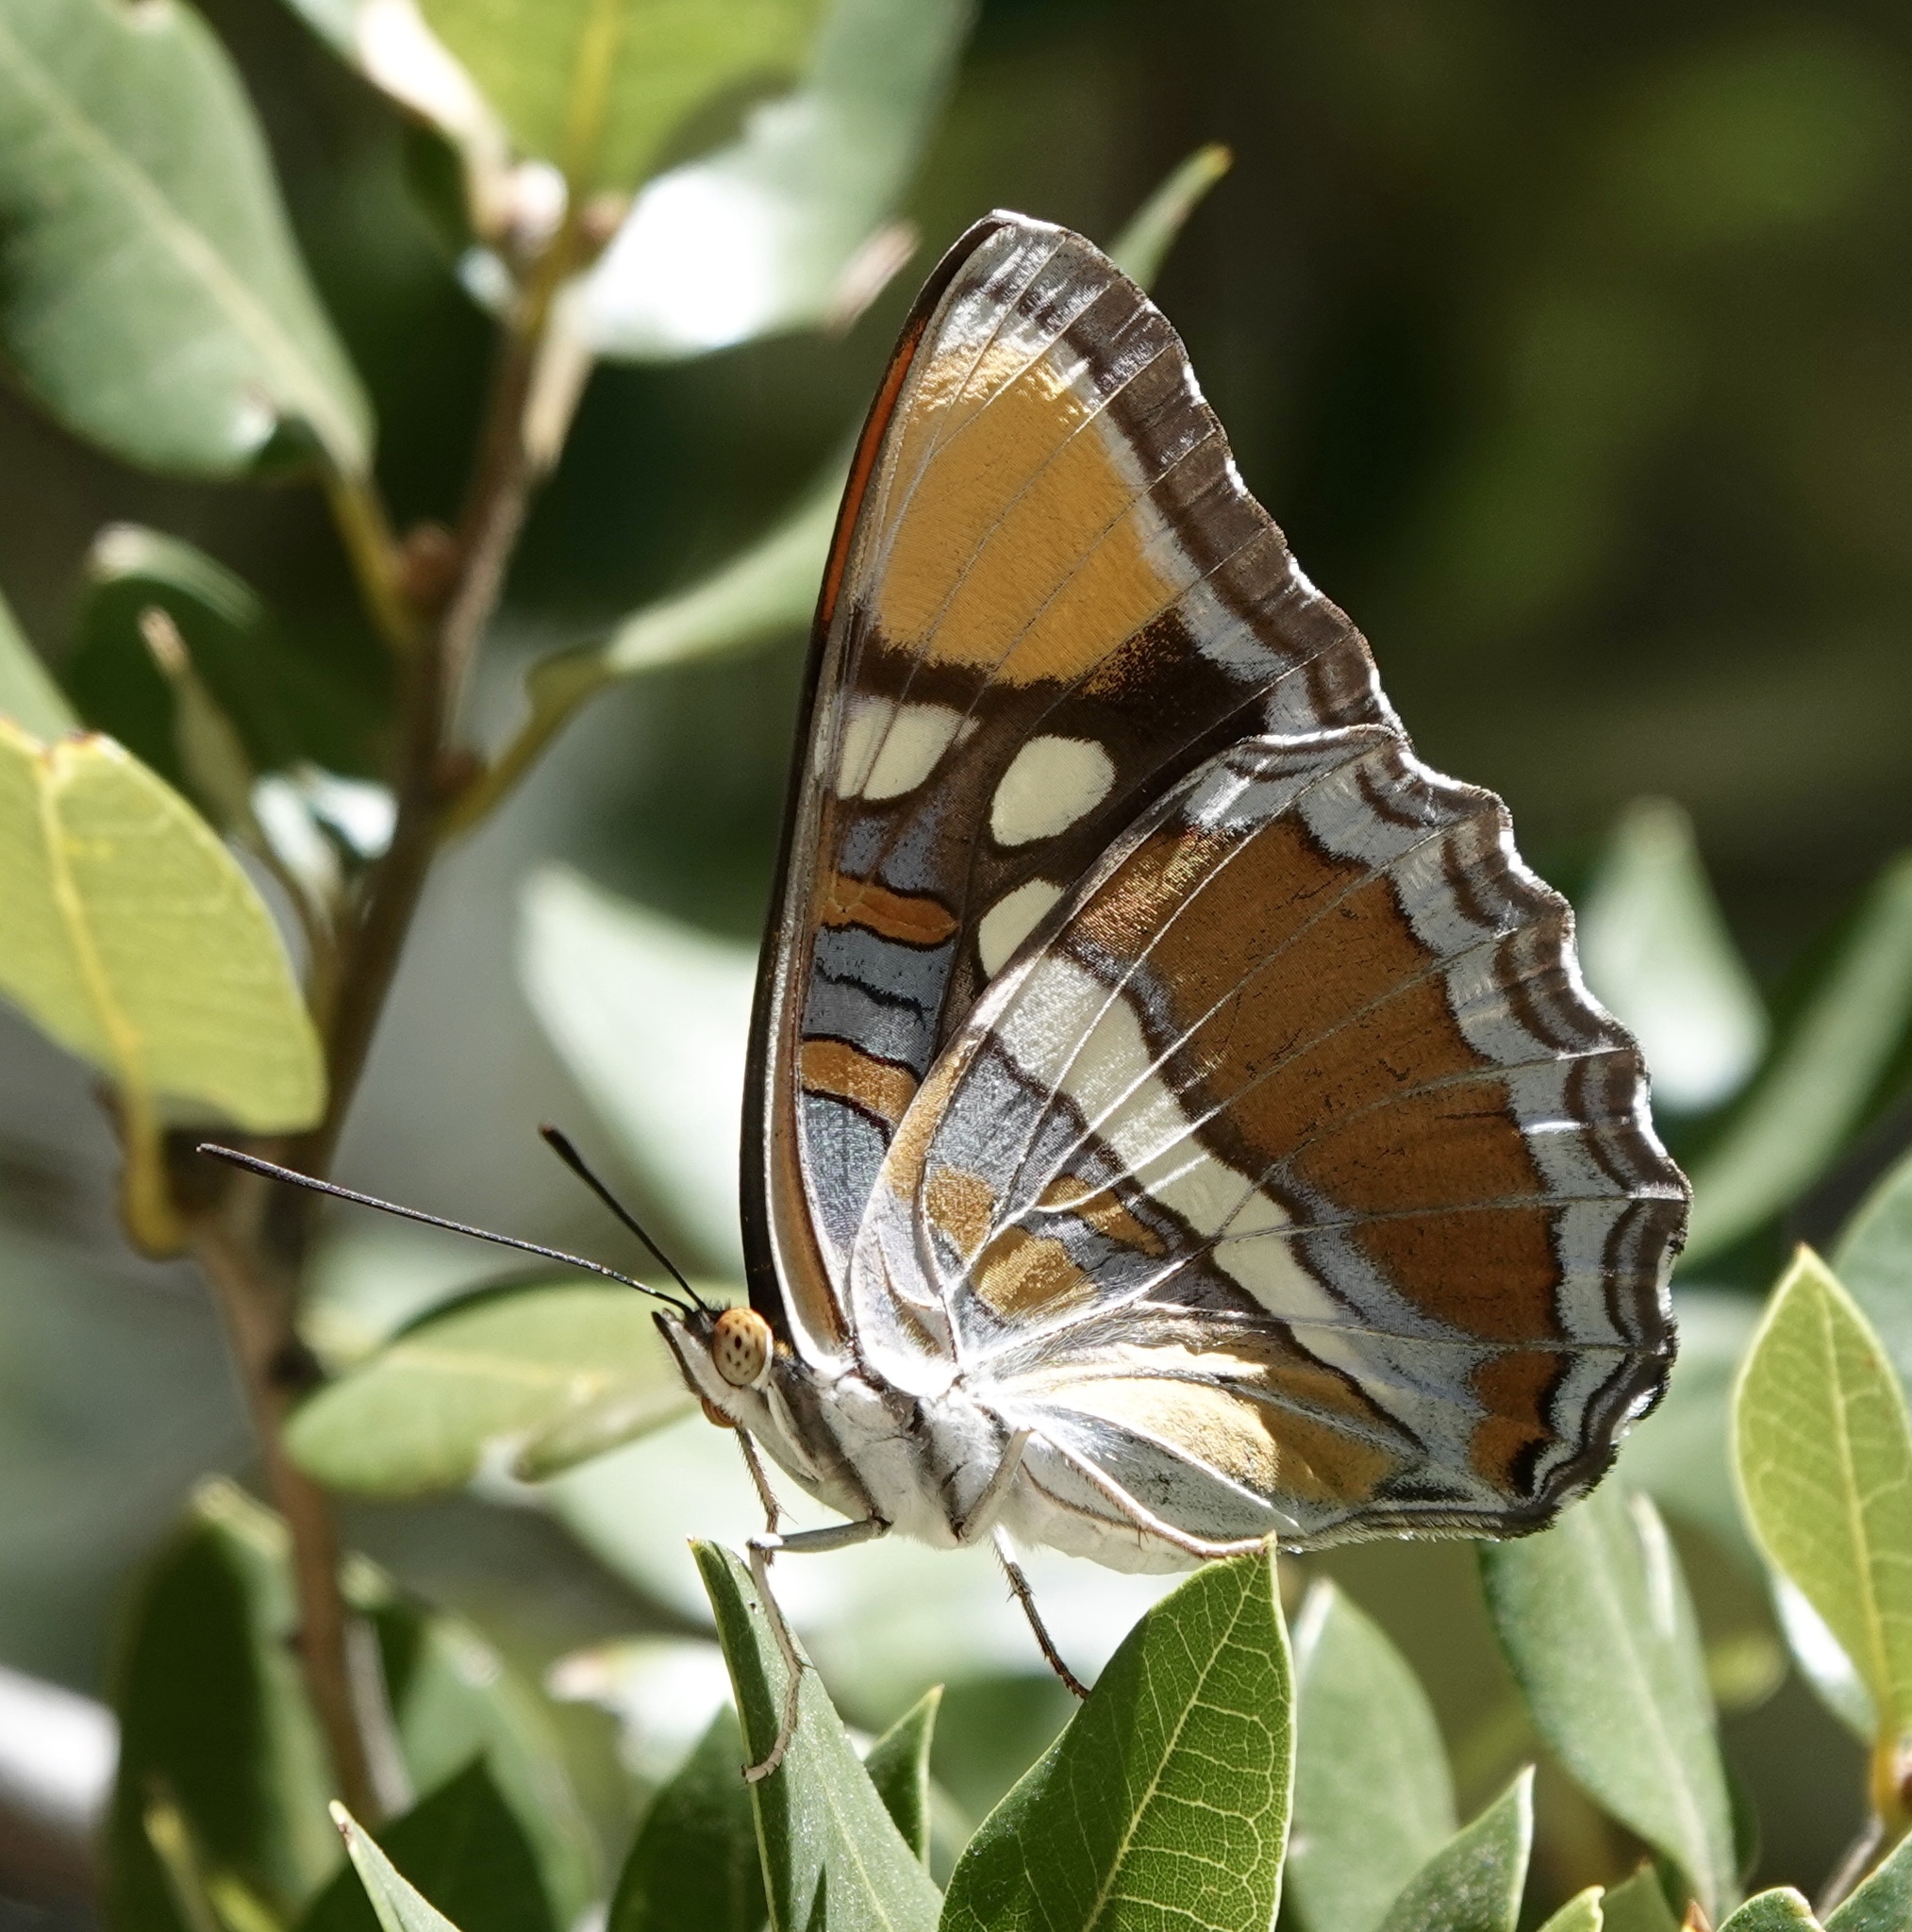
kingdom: Animalia
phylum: Arthropoda
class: Insecta
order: Lepidoptera
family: Nymphalidae
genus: Limenitis
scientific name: Limenitis bredowii
